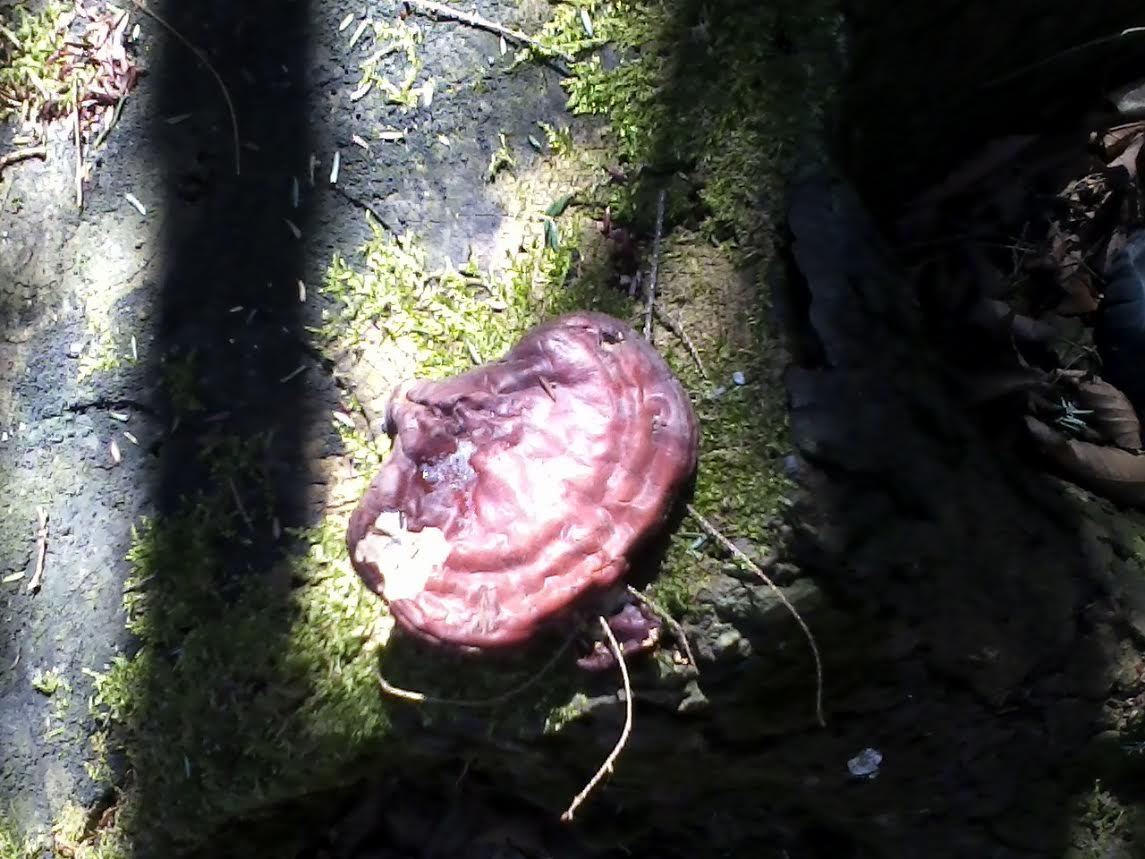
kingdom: Fungi
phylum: Basidiomycota
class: Agaricomycetes
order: Polyporales
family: Polyporaceae
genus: Ganoderma
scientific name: Ganoderma tsugae
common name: Hemlock varnish shelf
